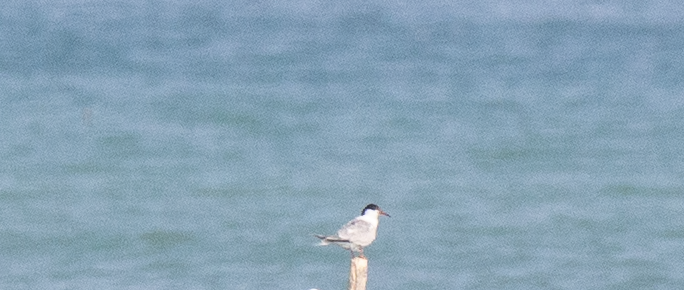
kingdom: Animalia
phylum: Chordata
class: Aves
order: Charadriiformes
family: Laridae
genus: Sterna
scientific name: Sterna hirundo
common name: Common tern
